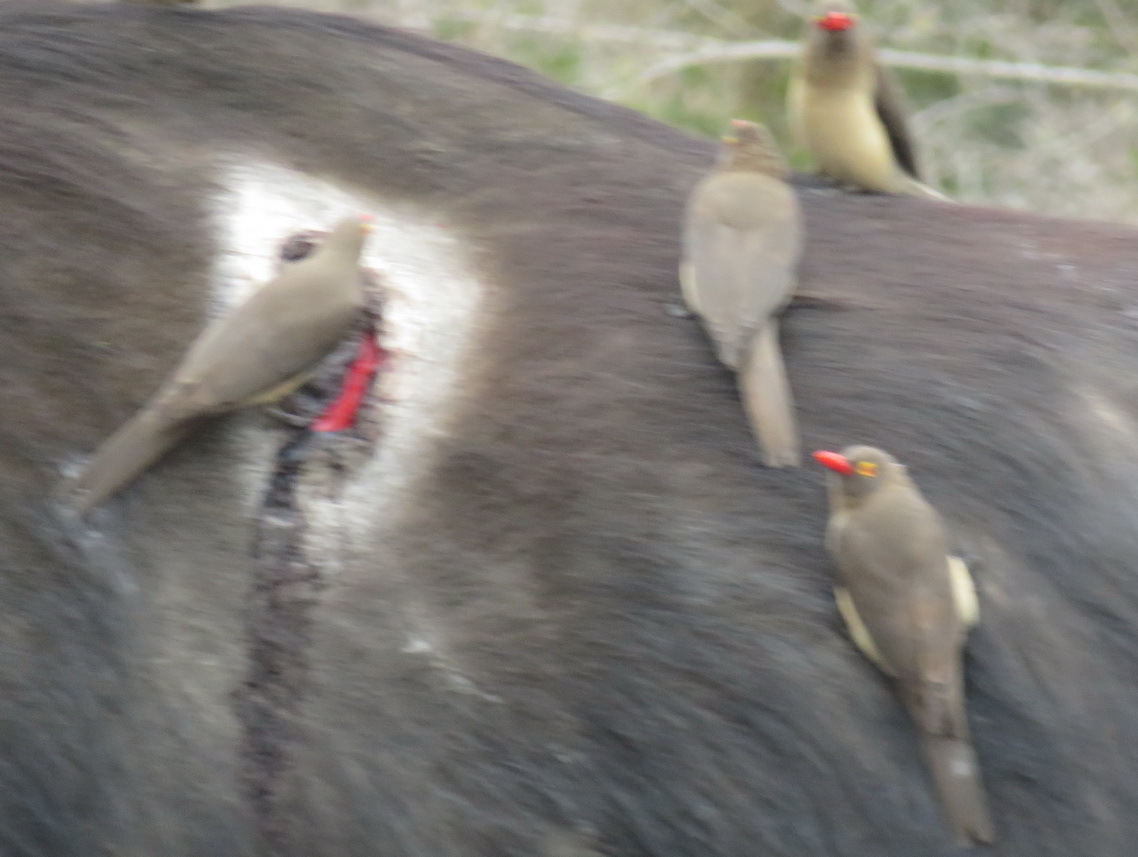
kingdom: Animalia
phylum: Chordata
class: Aves
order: Passeriformes
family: Buphagidae
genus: Buphagus
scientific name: Buphagus erythrorhynchus
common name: Red-billed oxpecker
